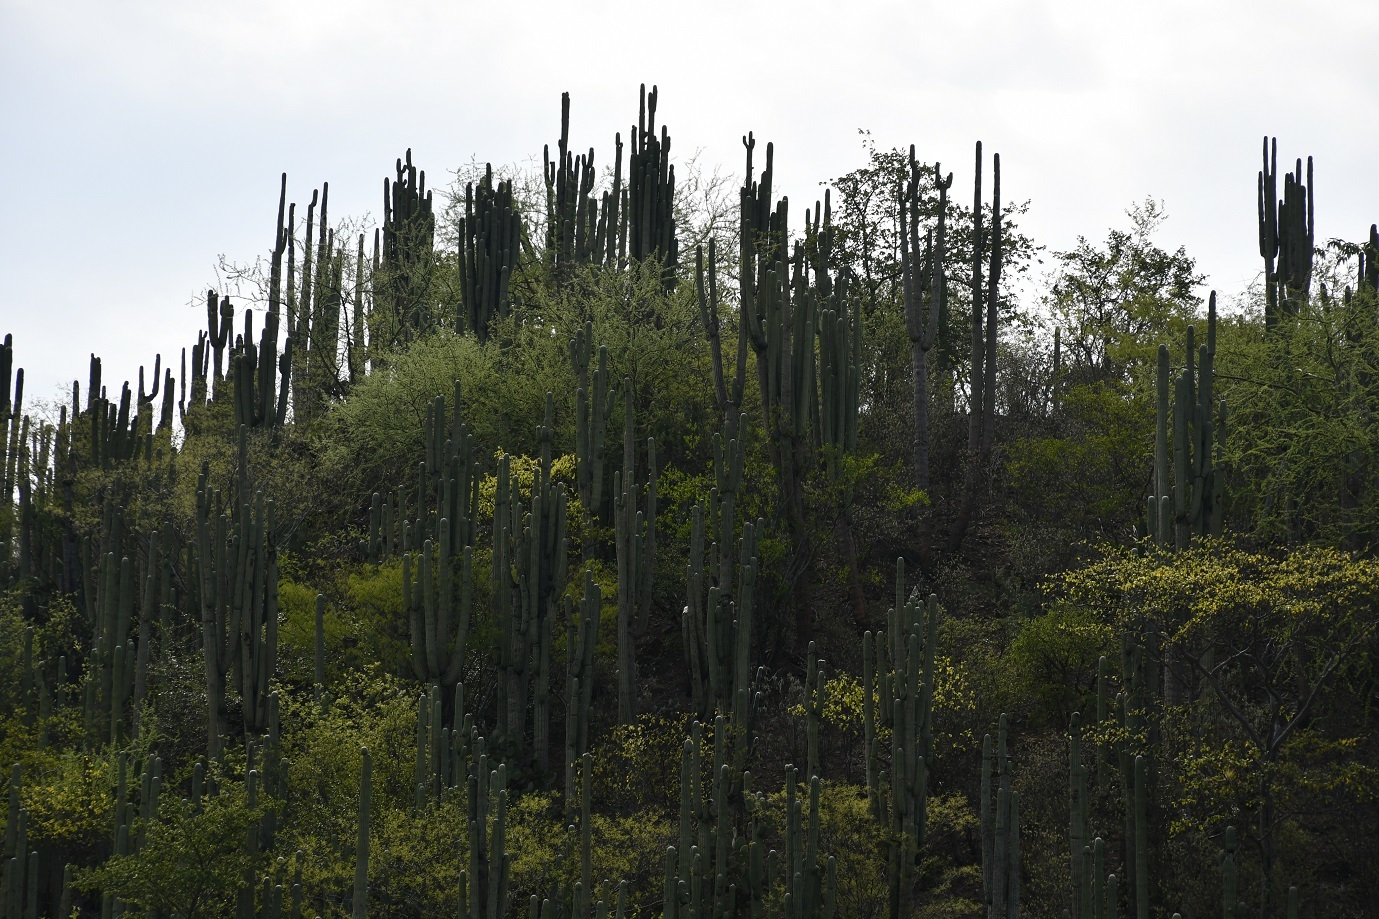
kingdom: Plantae
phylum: Tracheophyta
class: Magnoliopsida
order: Caryophyllales
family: Cactaceae
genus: Cephalocereus
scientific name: Cephalocereus nudus
